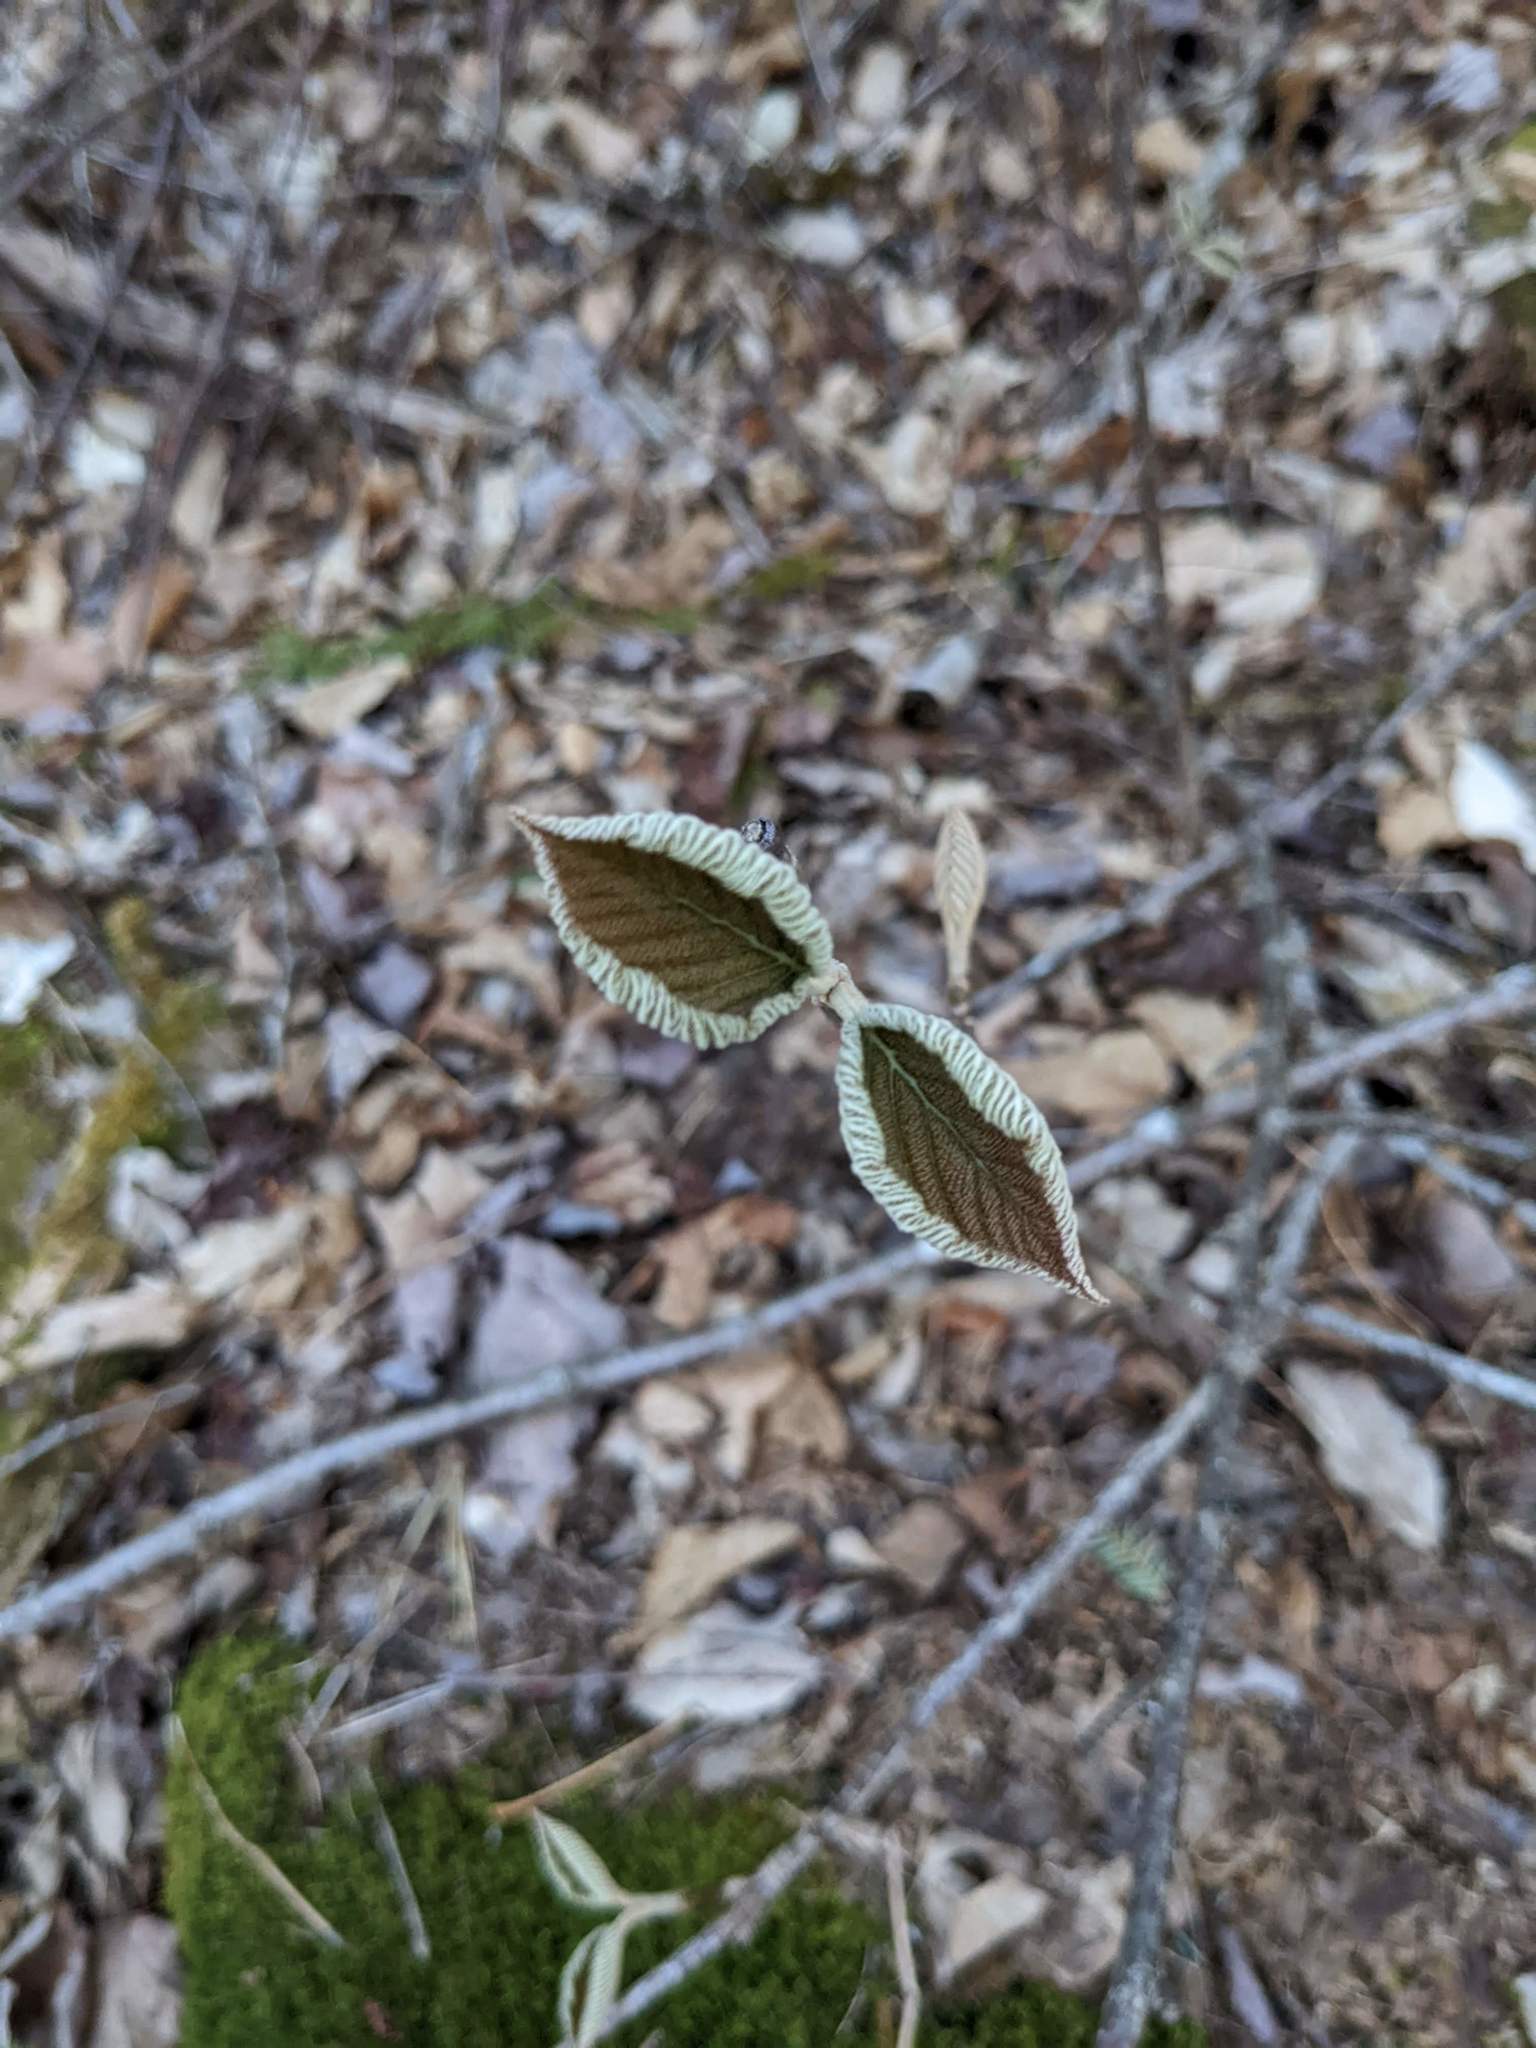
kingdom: Plantae
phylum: Tracheophyta
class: Magnoliopsida
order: Dipsacales
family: Viburnaceae
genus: Viburnum
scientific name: Viburnum lantanoides
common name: Hobblebush
